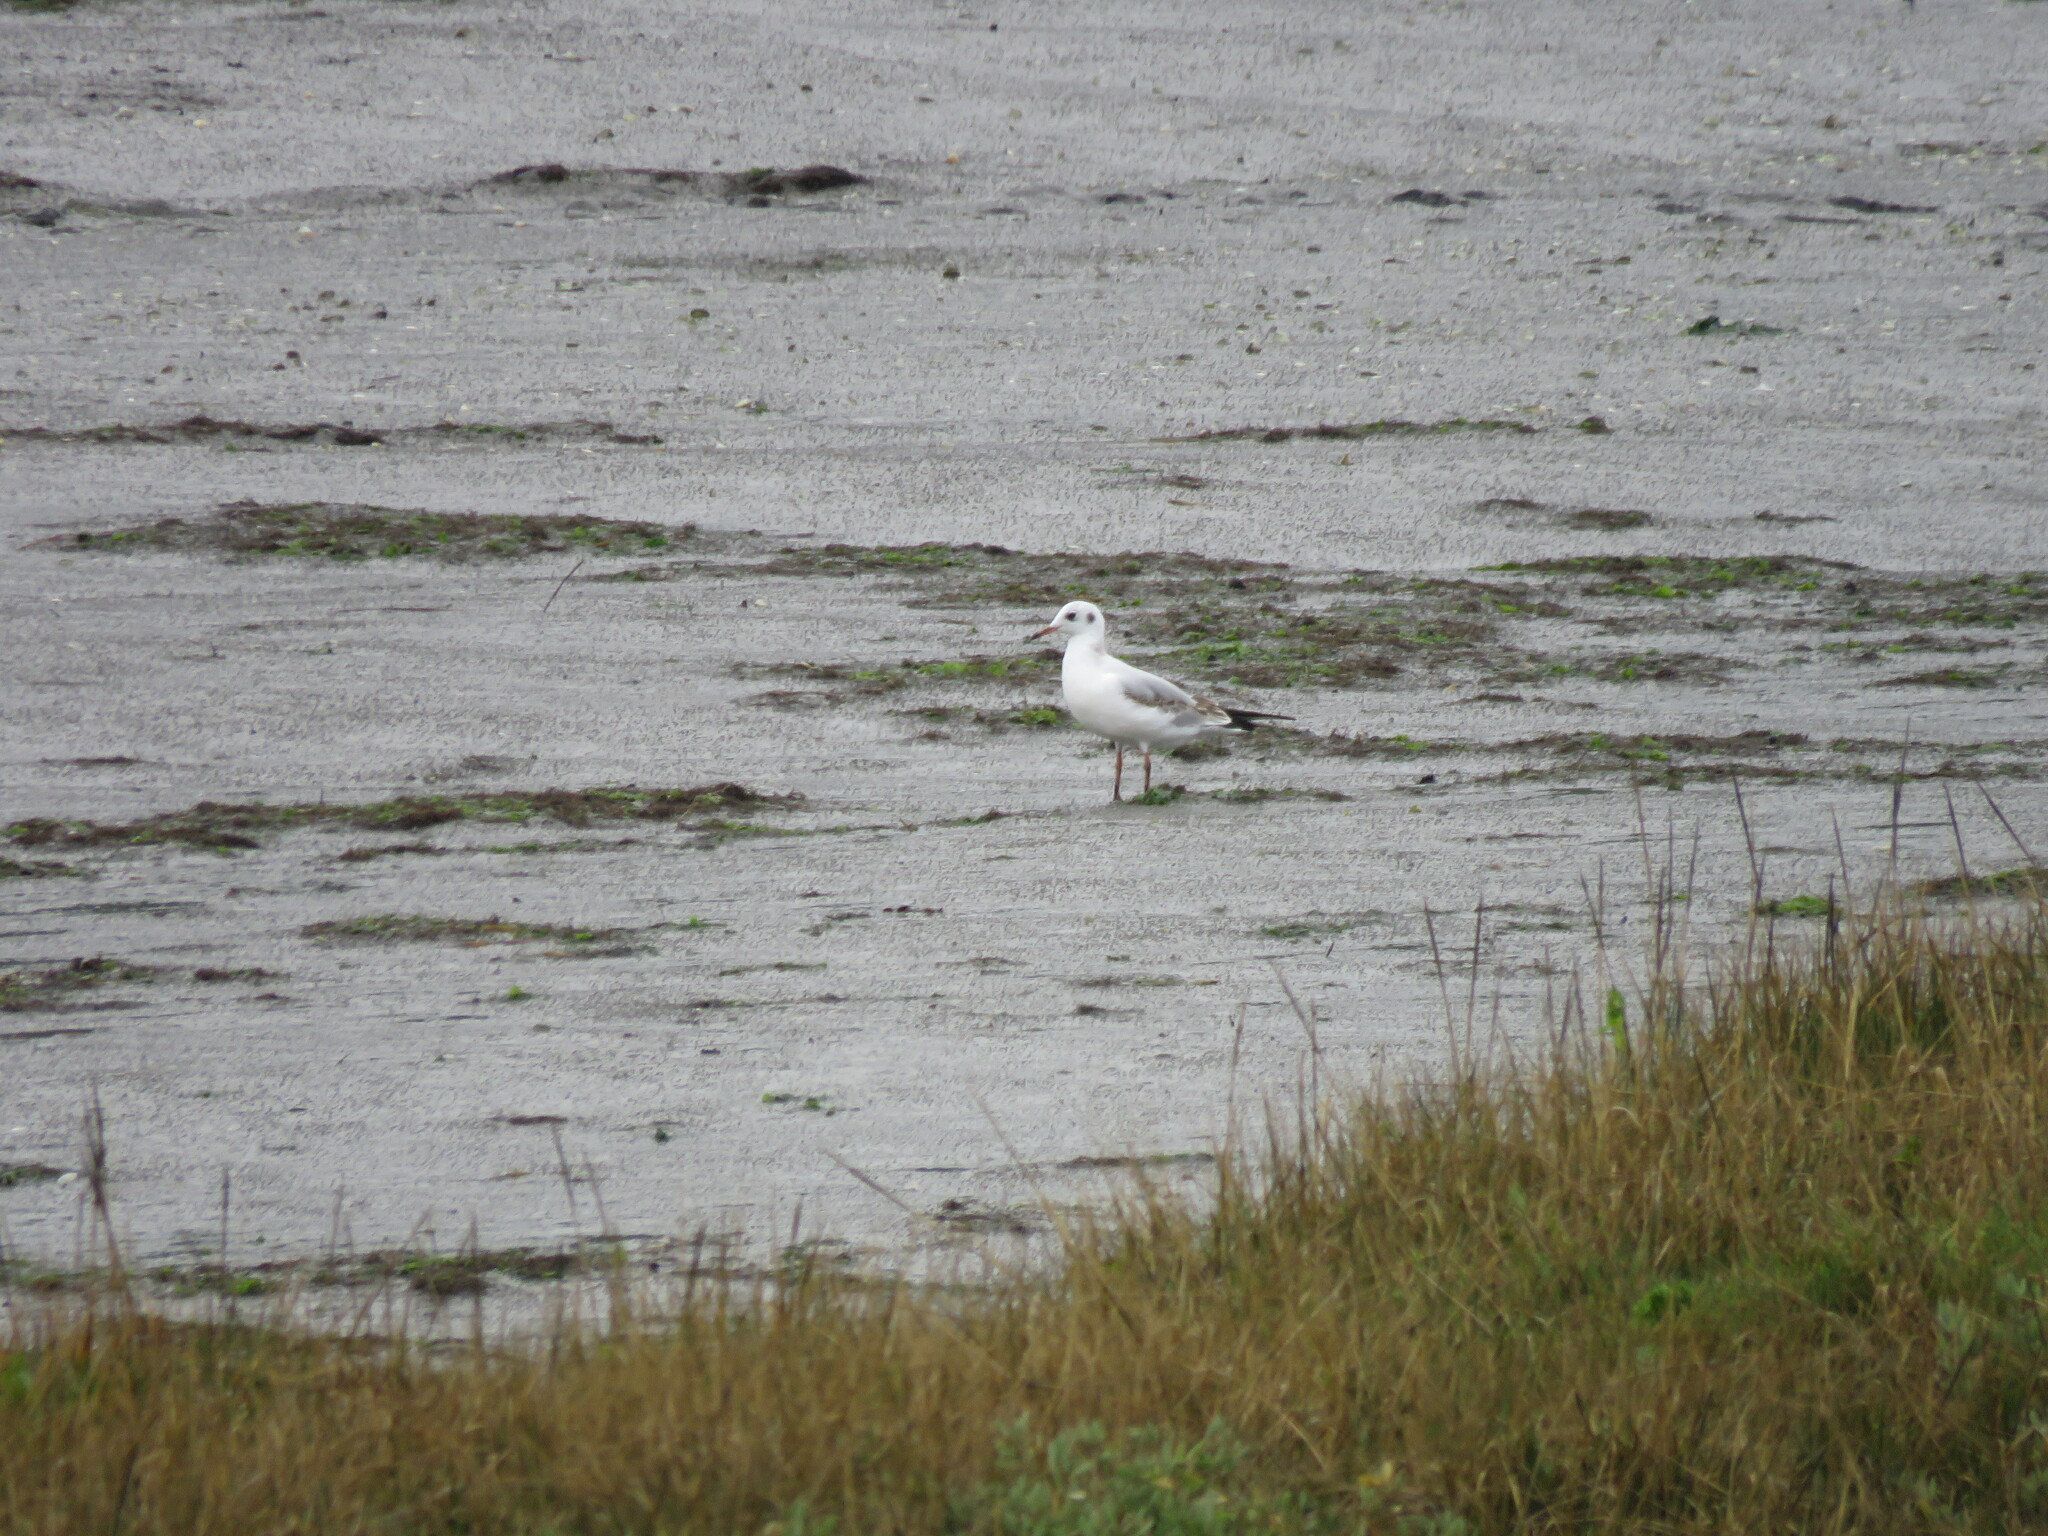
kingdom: Animalia
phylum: Chordata
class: Aves
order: Charadriiformes
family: Laridae
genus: Chroicocephalus
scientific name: Chroicocephalus ridibundus
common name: Black-headed gull
